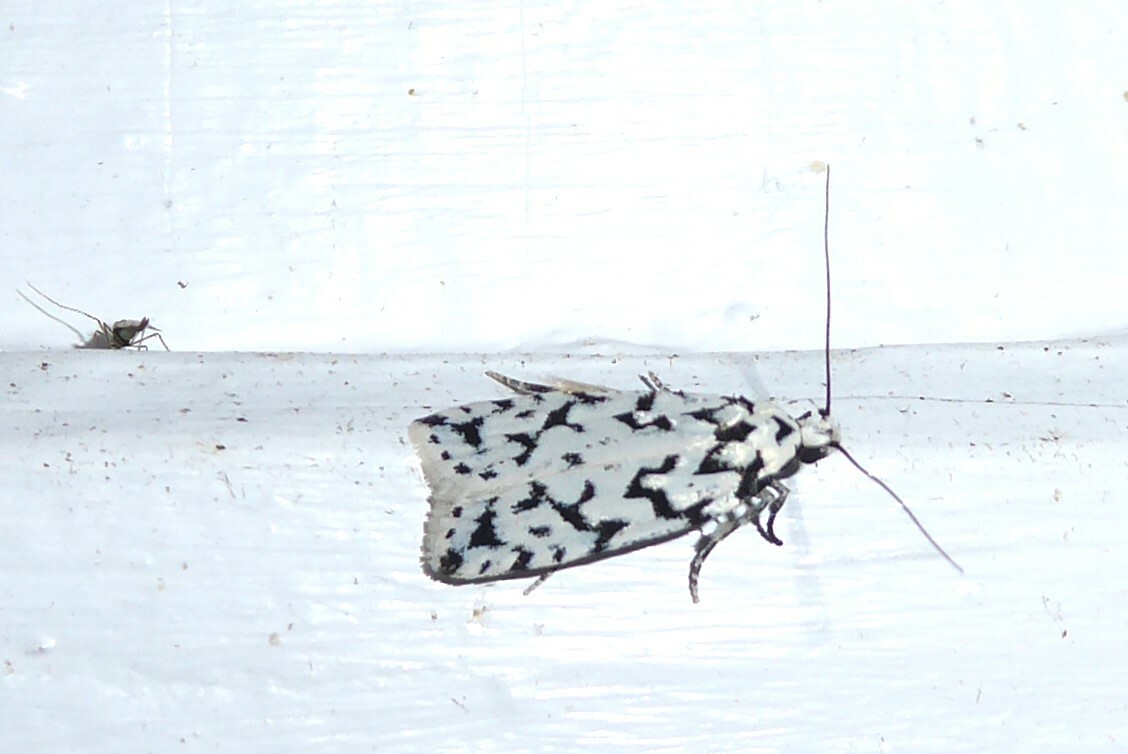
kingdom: Animalia
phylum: Arthropoda
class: Insecta
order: Lepidoptera
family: Oecophoridae
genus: Izatha
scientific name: Izatha katadiktya
